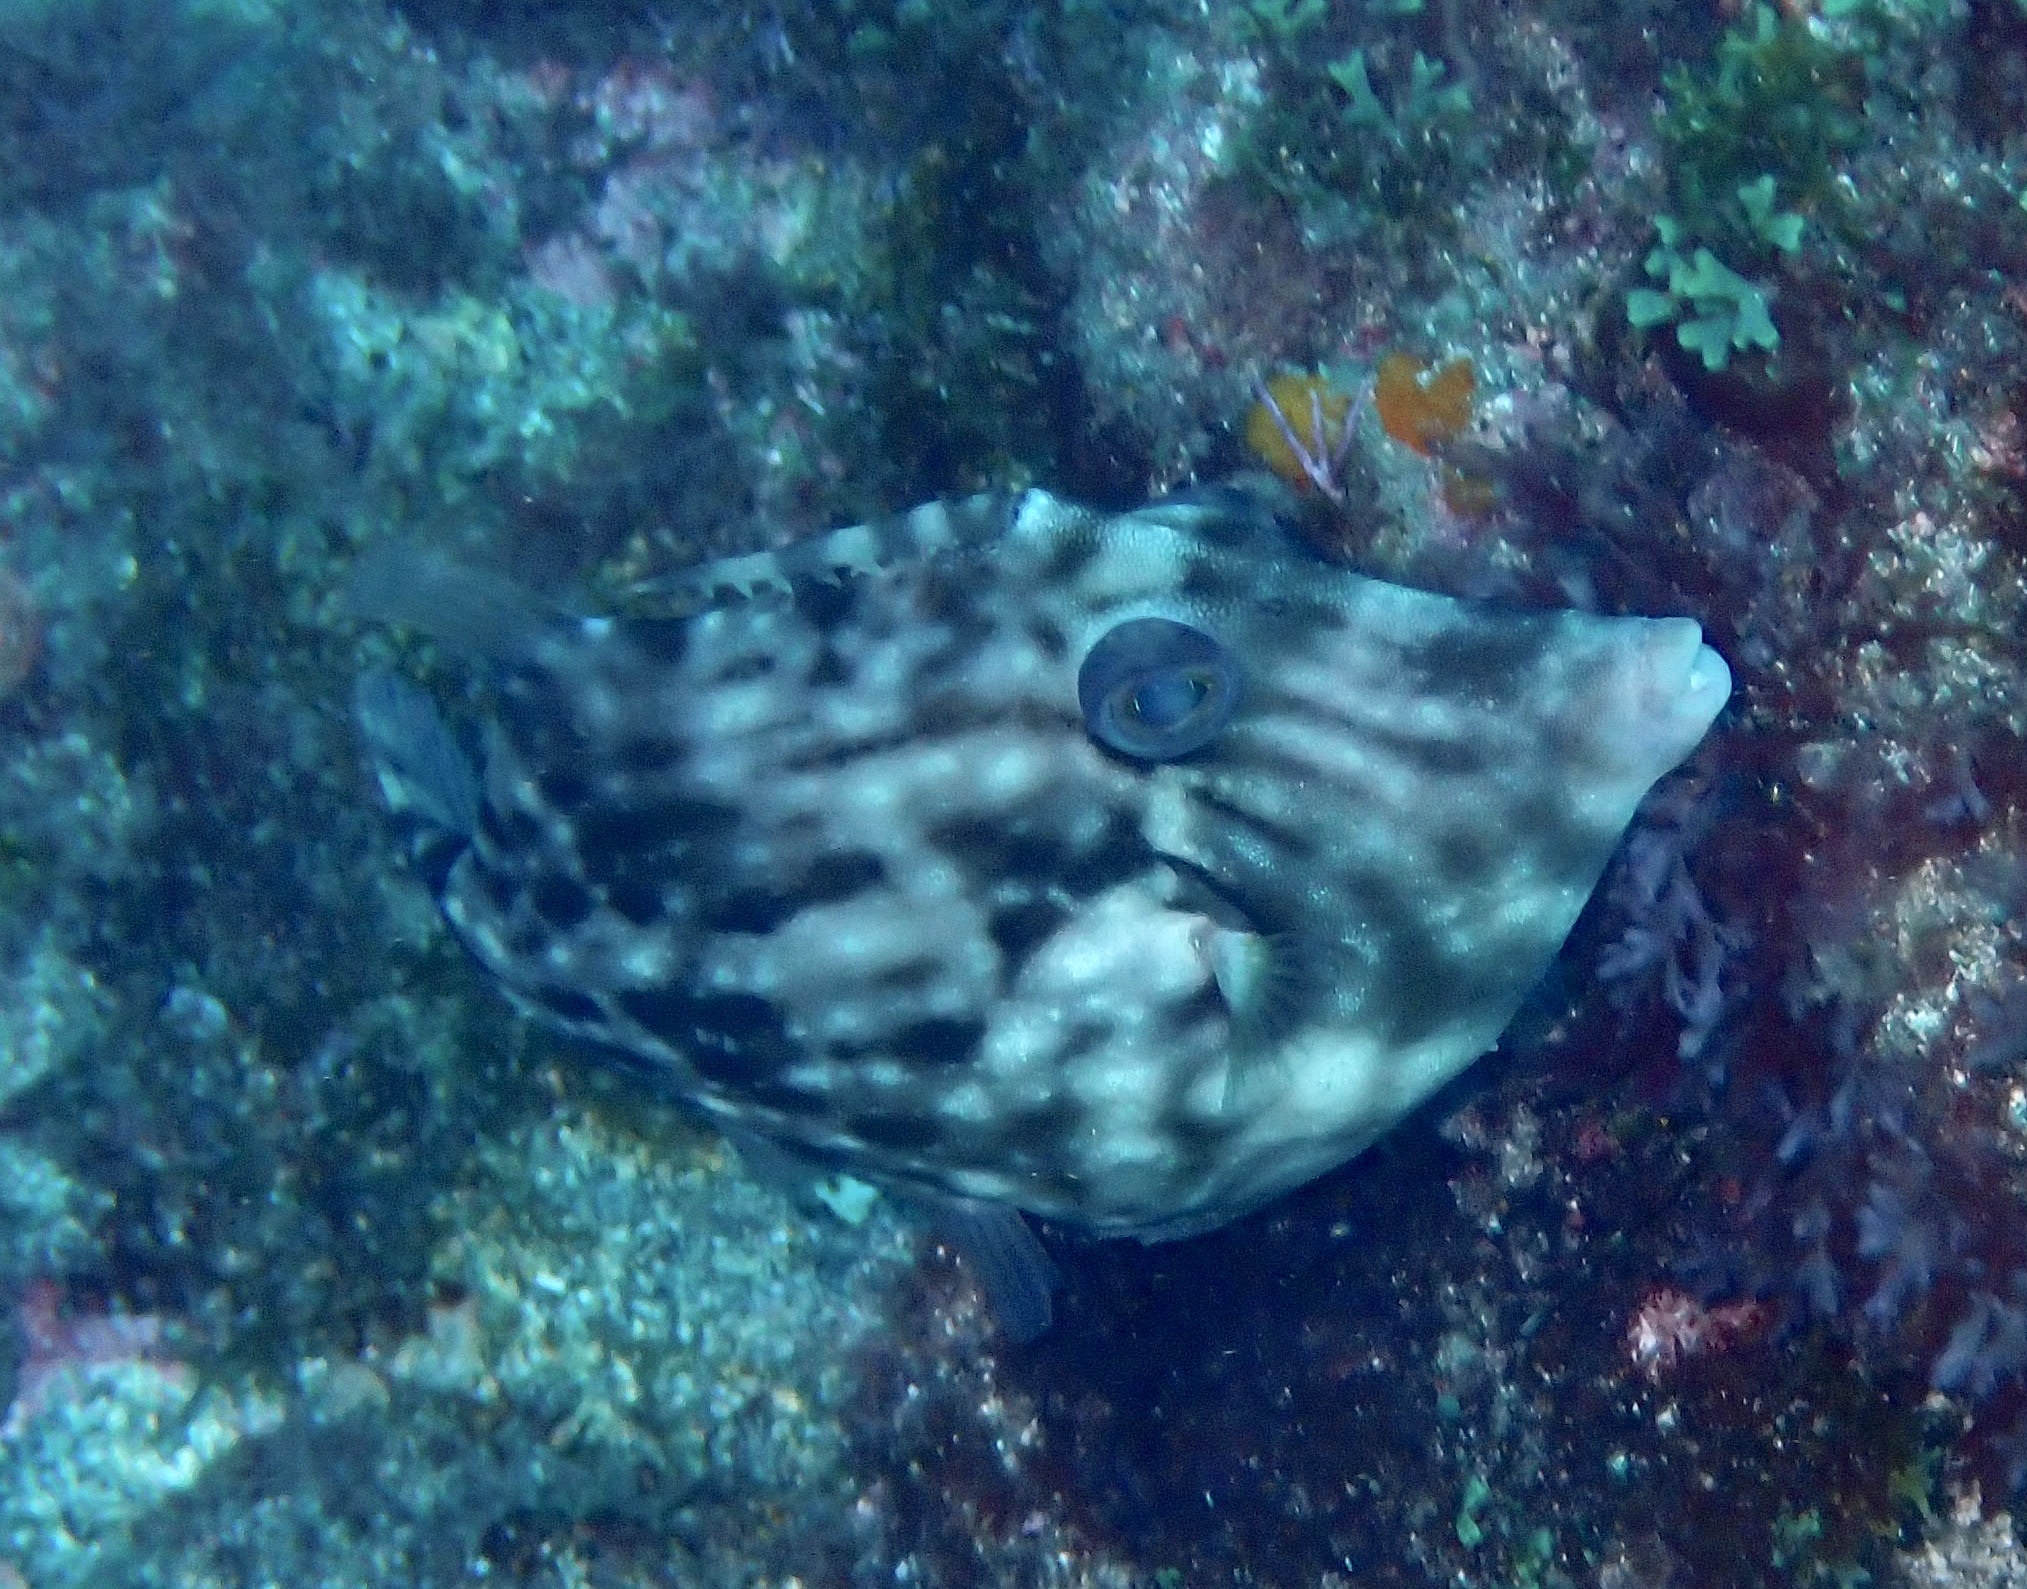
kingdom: Animalia
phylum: Chordata
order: Tetraodontiformes
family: Monacanthidae
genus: Stephanolepis
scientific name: Stephanolepis hispidus
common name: Planehead filefish
